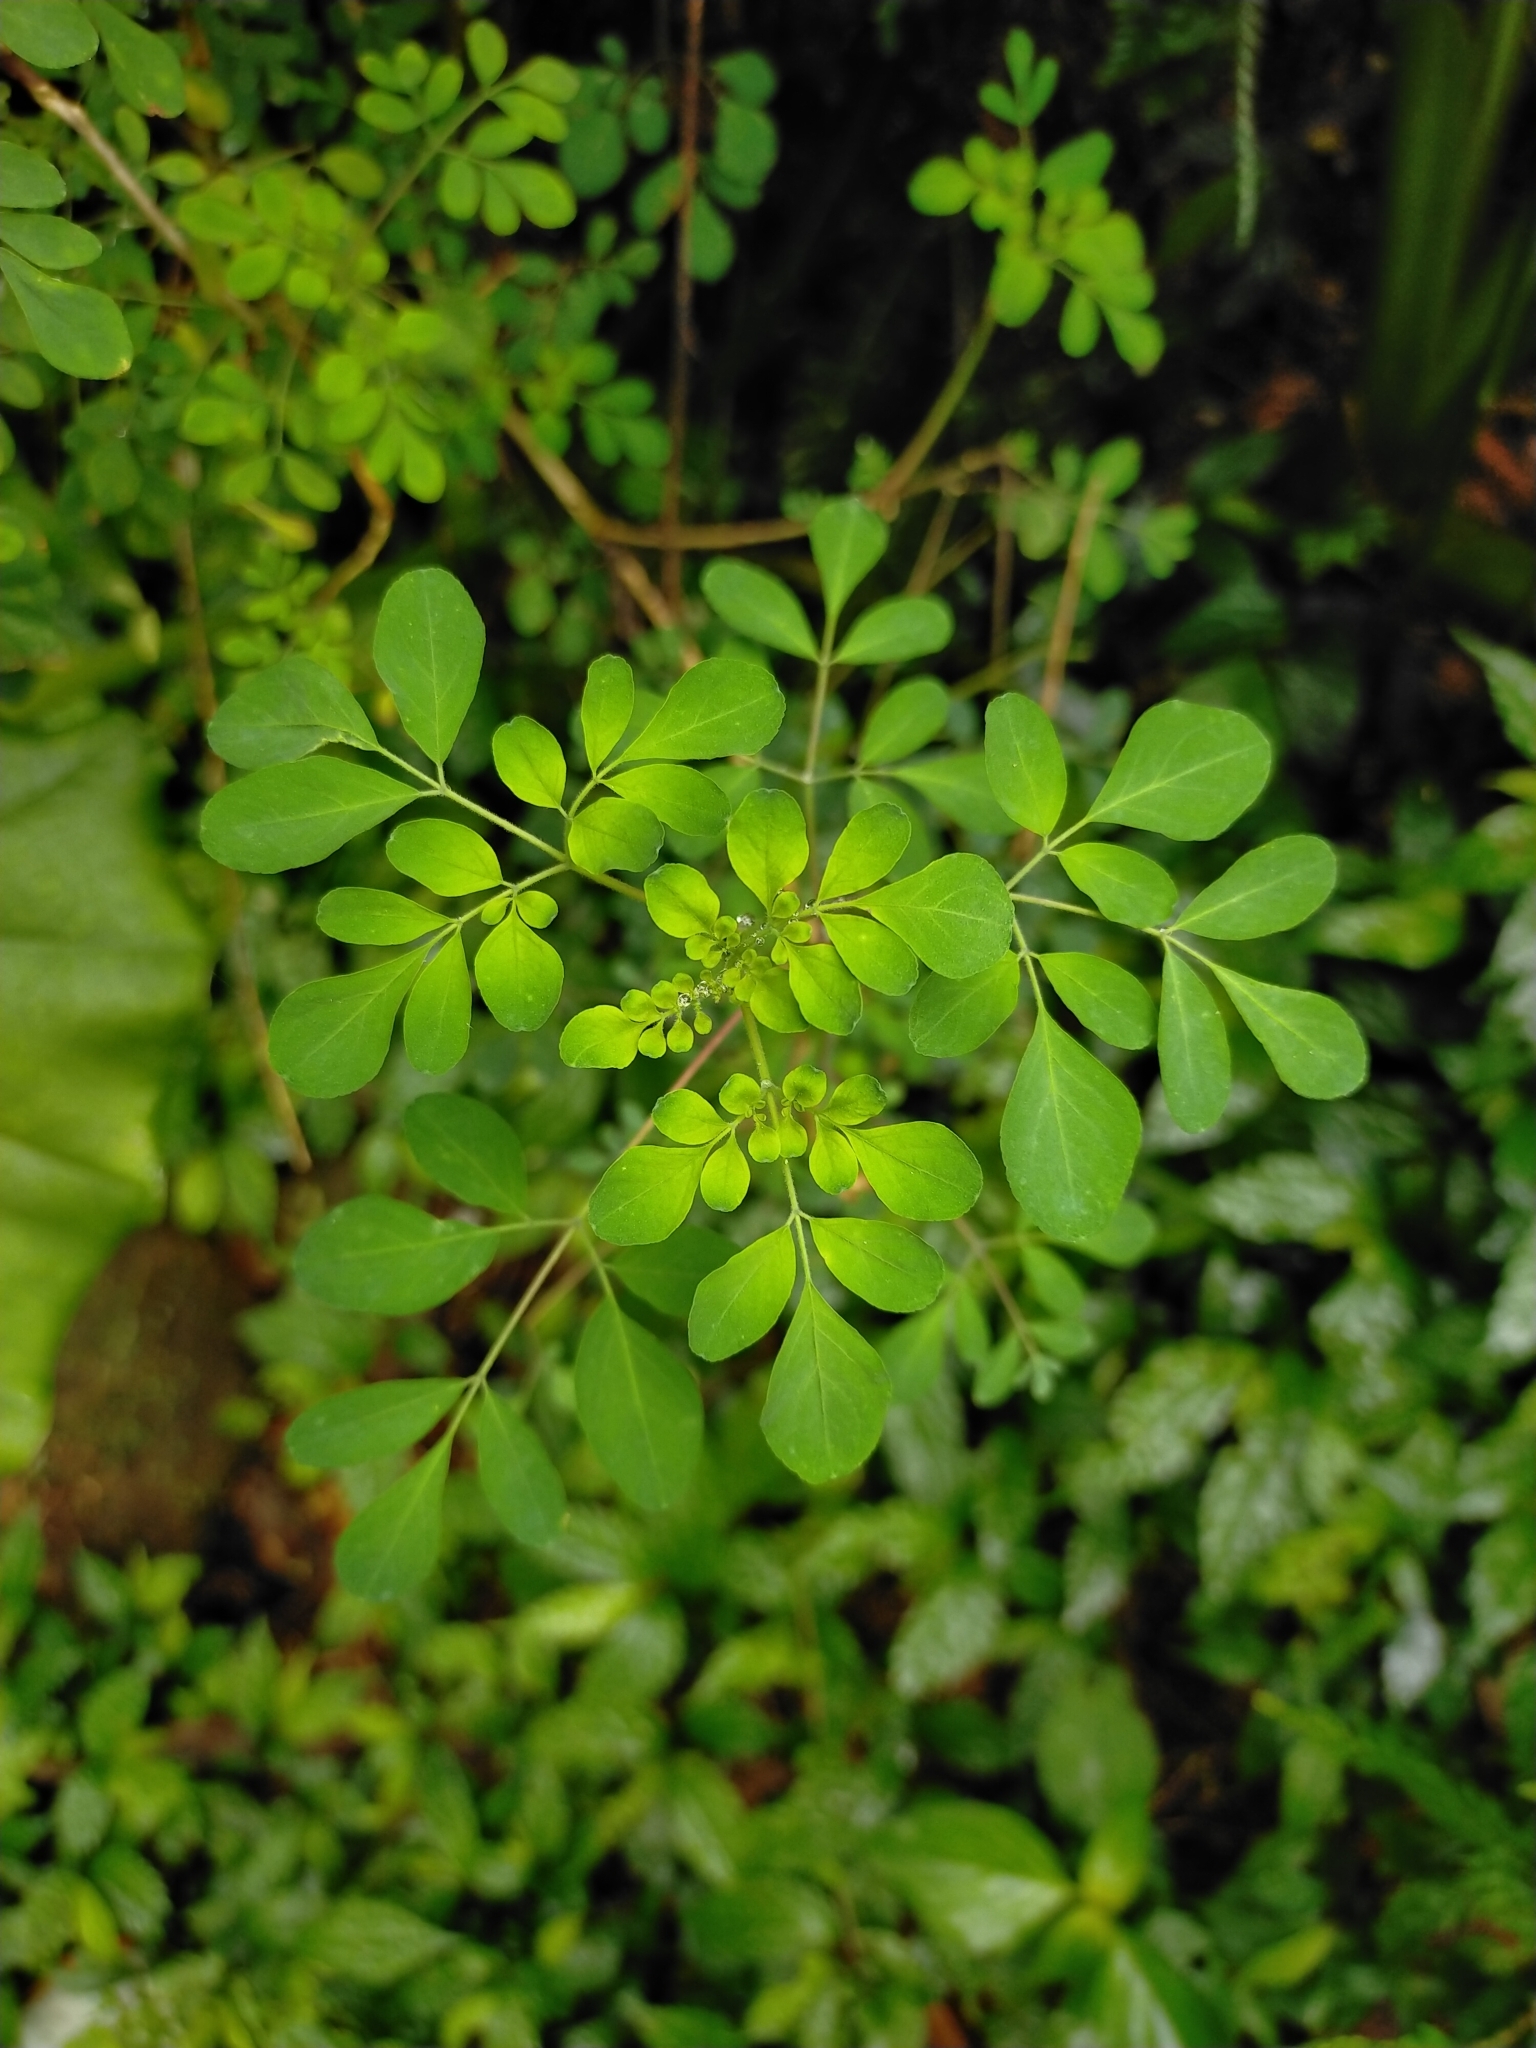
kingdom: Plantae
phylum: Tracheophyta
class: Magnoliopsida
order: Sapindales
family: Rutaceae
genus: Boenninghausenia
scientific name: Boenninghausenia albiflora
